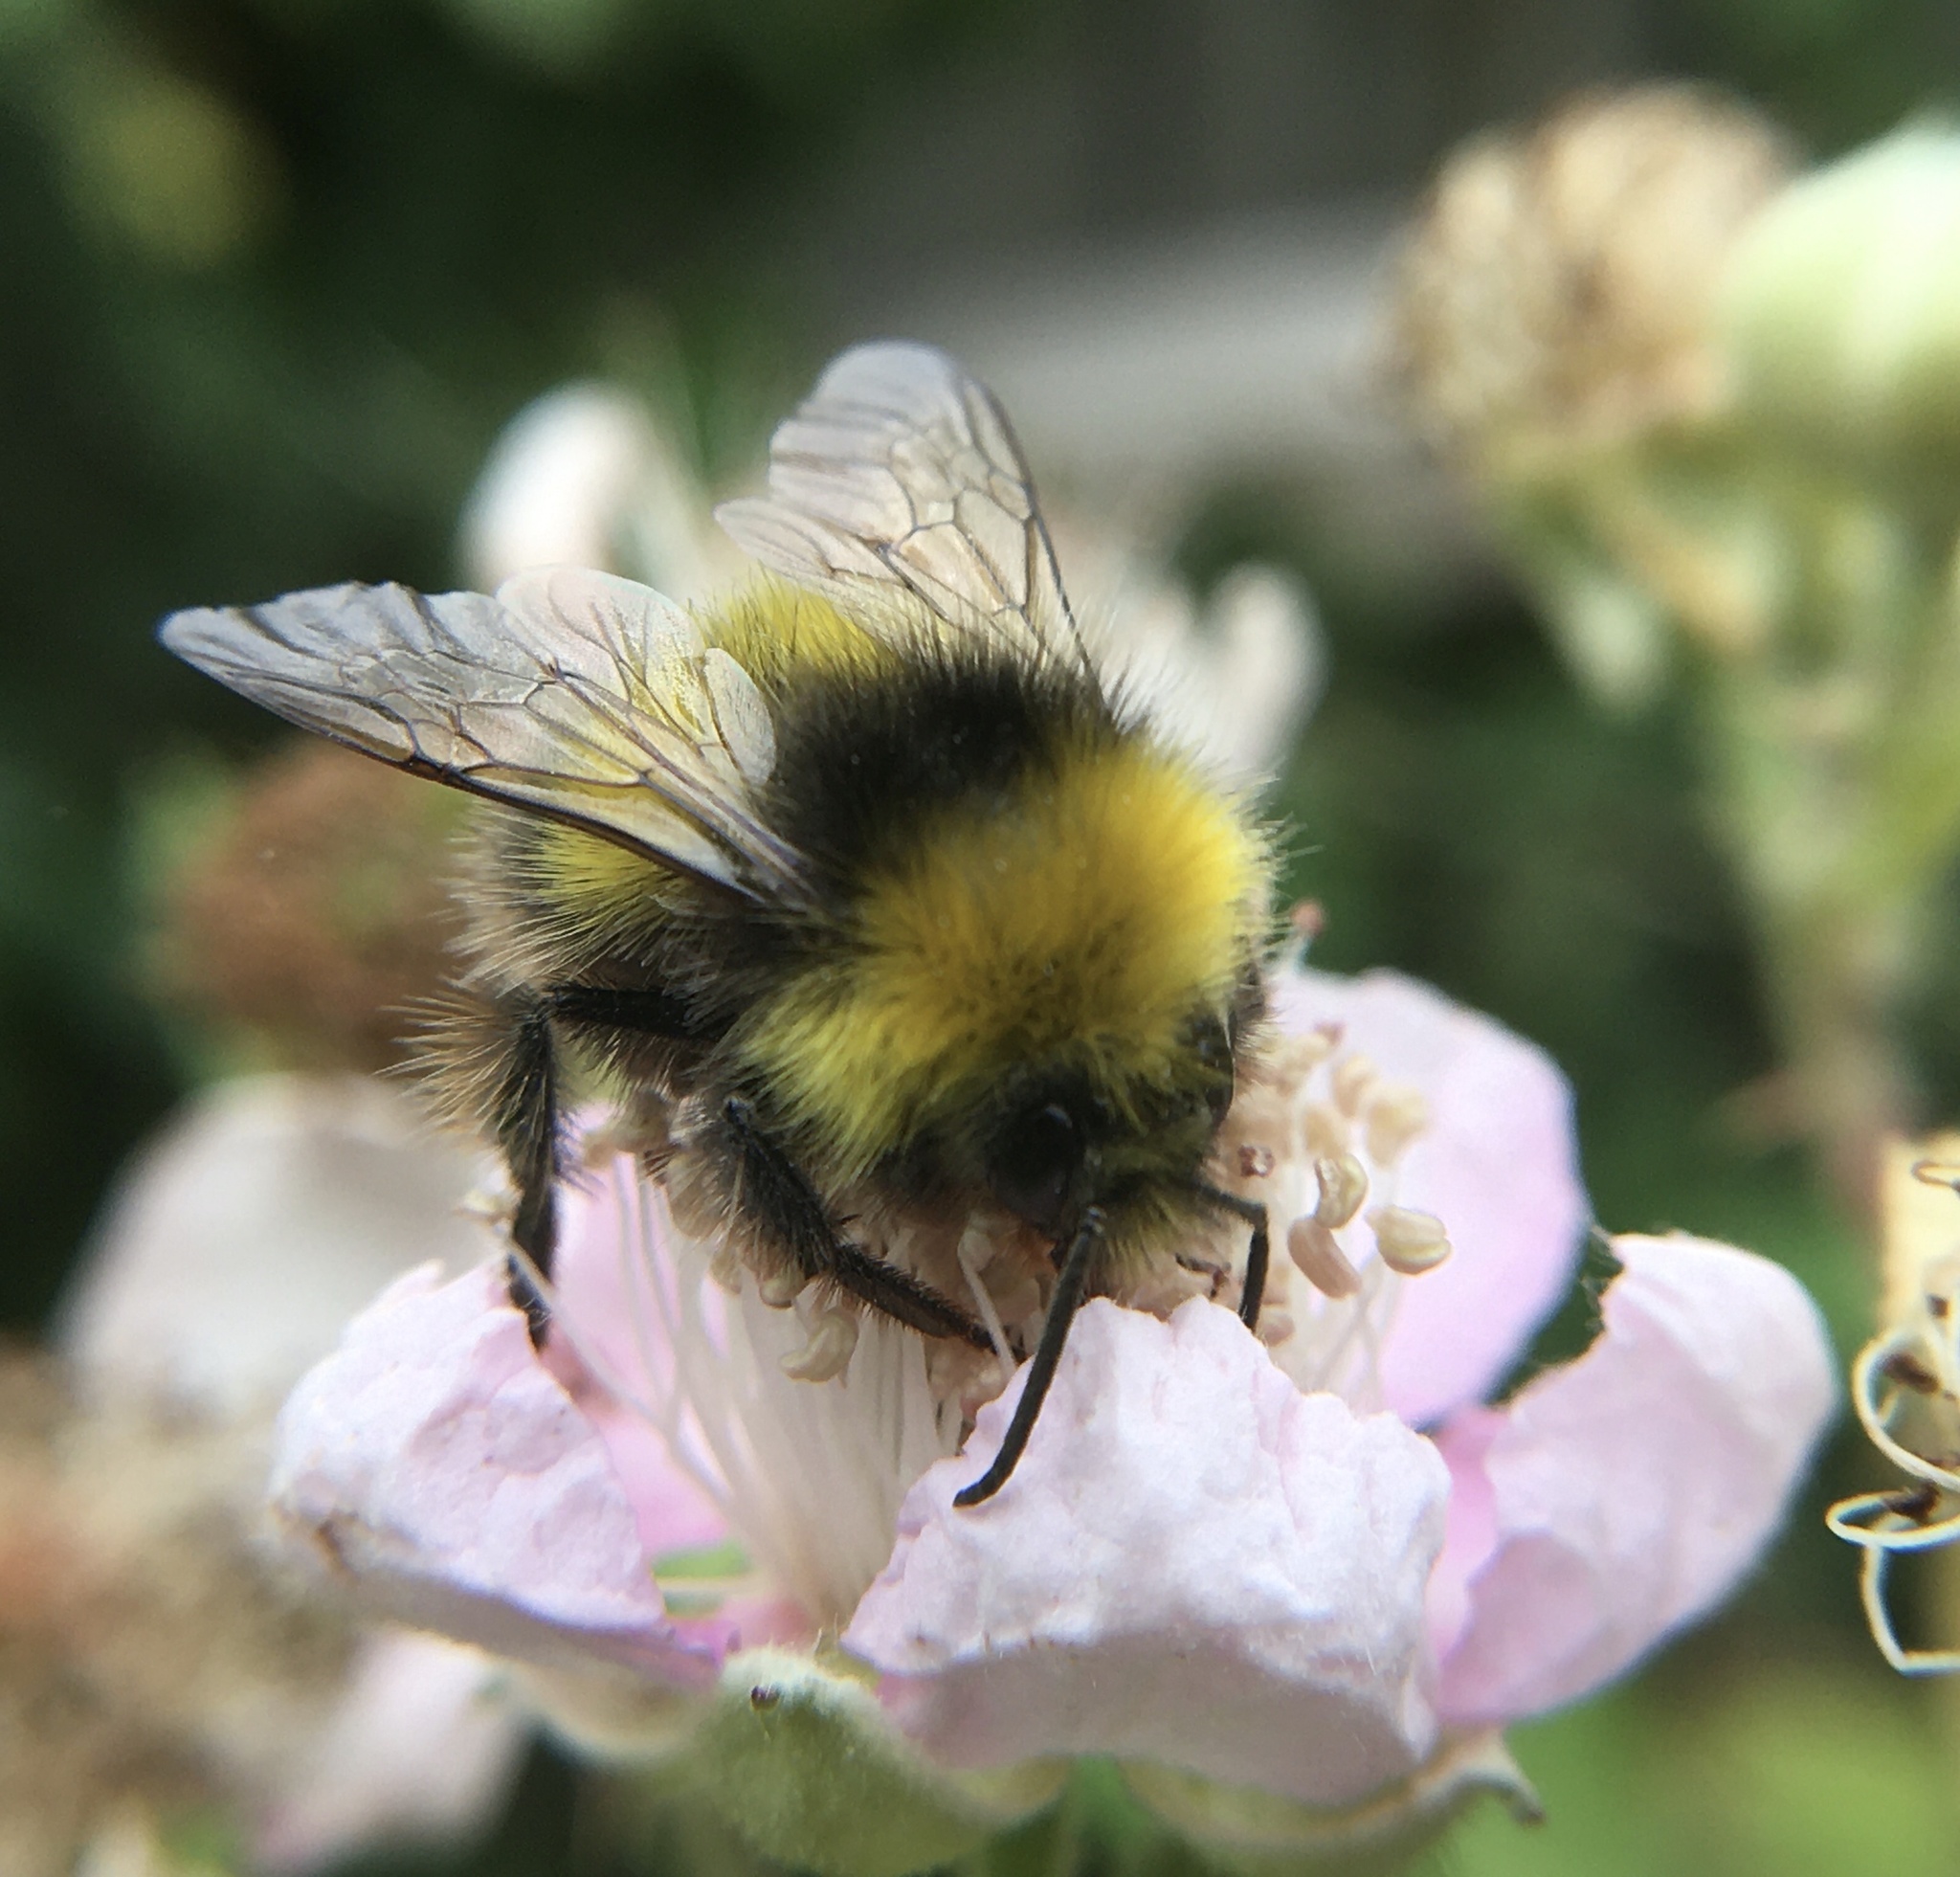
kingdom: Animalia
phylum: Arthropoda
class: Insecta
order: Hymenoptera
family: Apidae
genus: Bombus
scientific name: Bombus pratorum
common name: Early humble-bee
